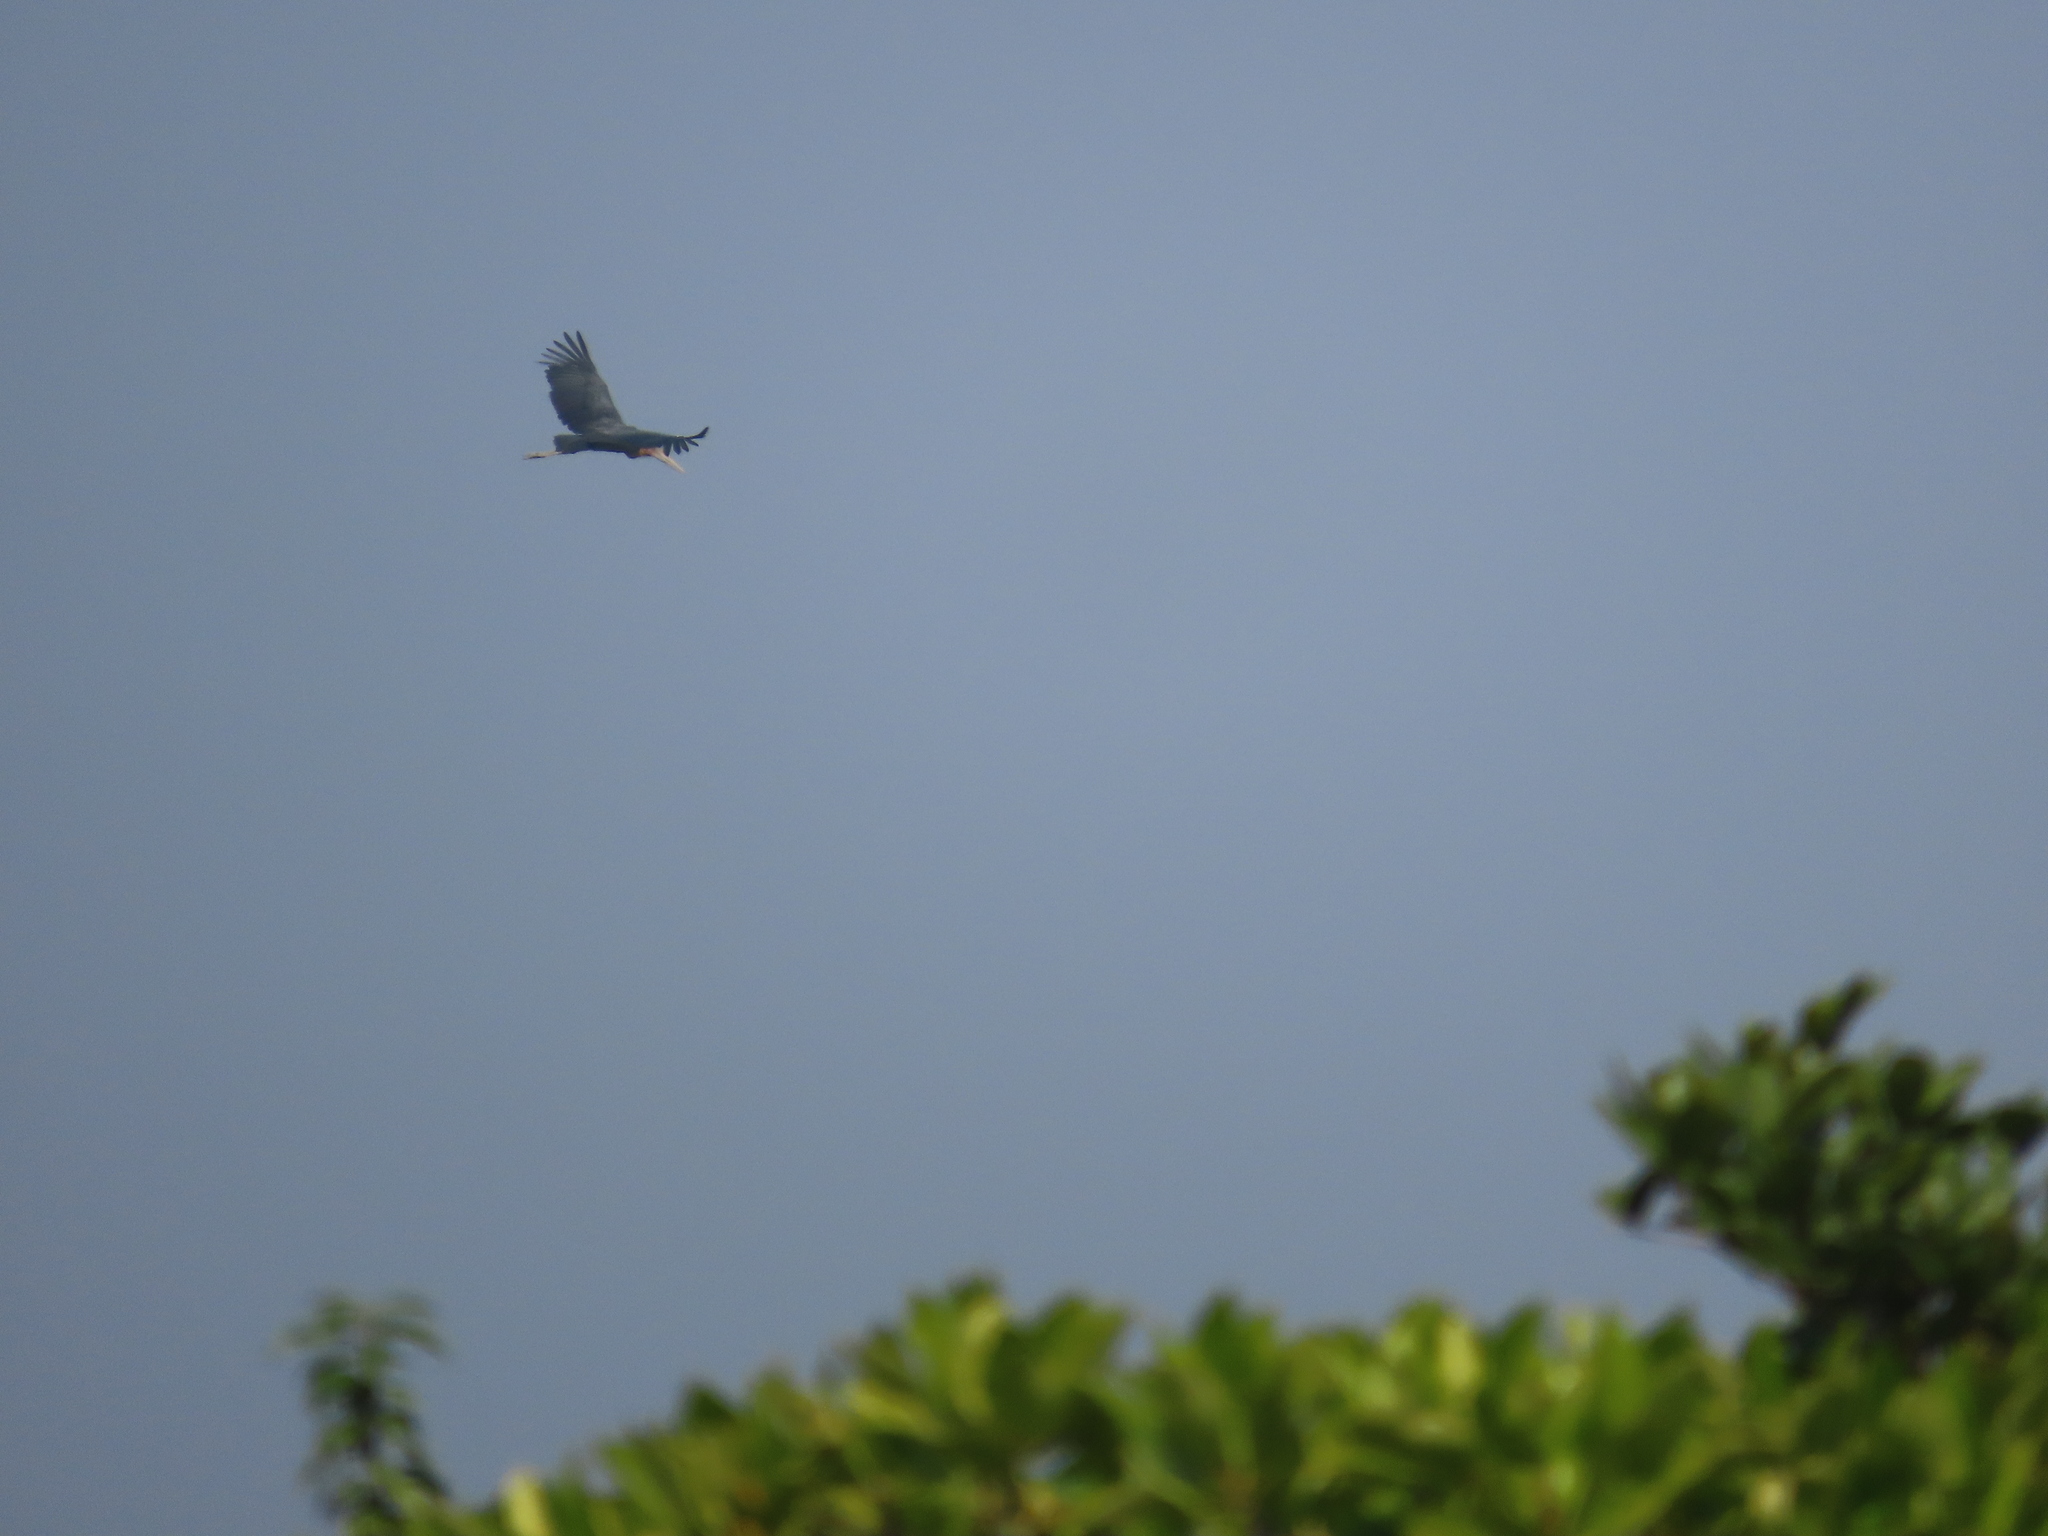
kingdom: Animalia
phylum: Chordata
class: Aves
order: Ciconiiformes
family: Ciconiidae
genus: Leptoptilos
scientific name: Leptoptilos javanicus
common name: Lesser adjutant
